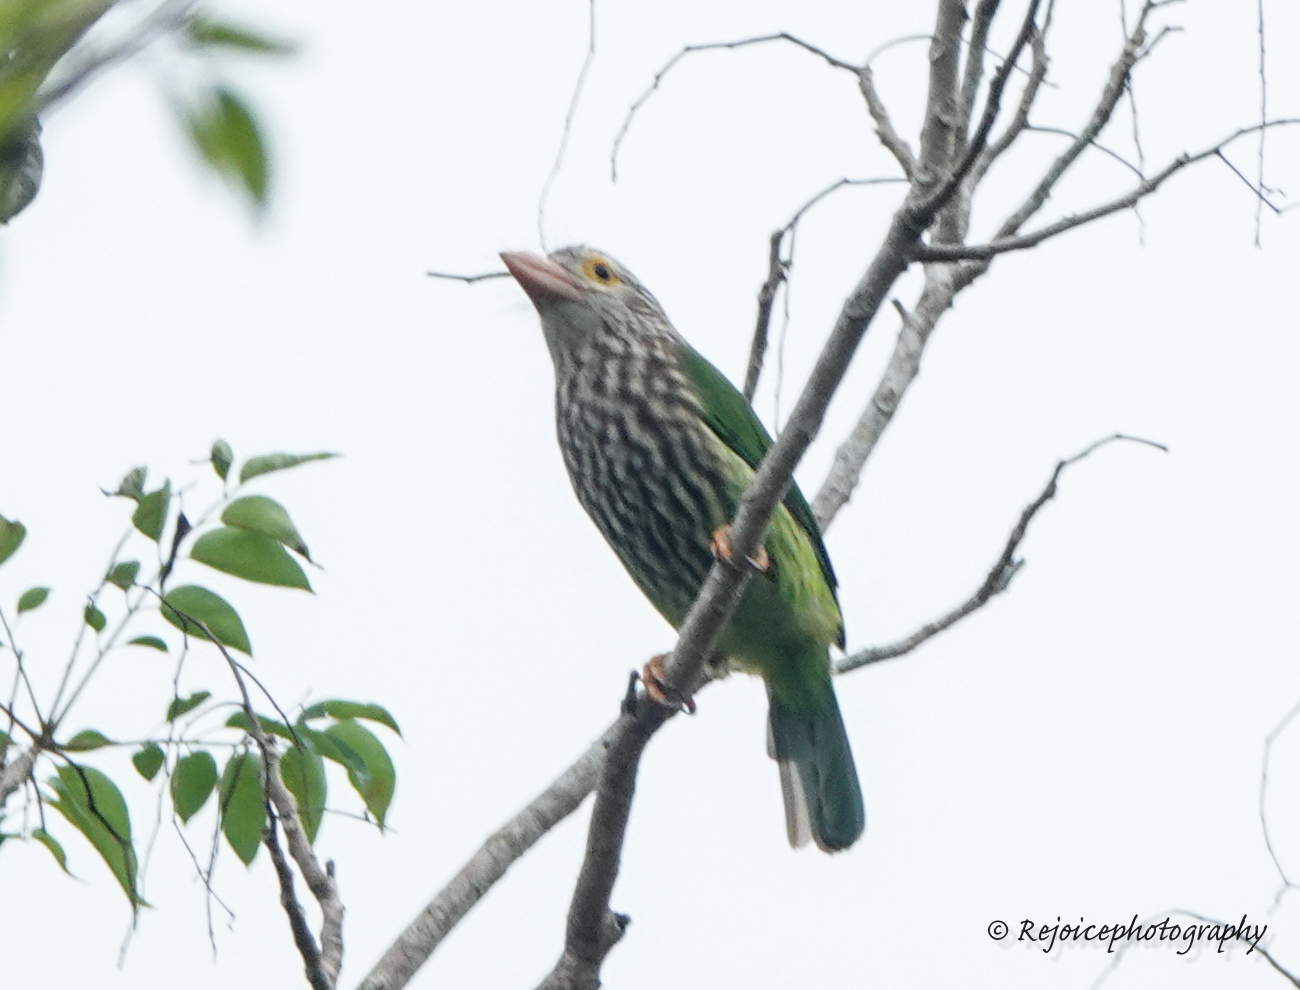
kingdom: Animalia
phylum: Chordata
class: Aves
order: Piciformes
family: Megalaimidae
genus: Psilopogon
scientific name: Psilopogon lineatus
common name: Lineated barbet
